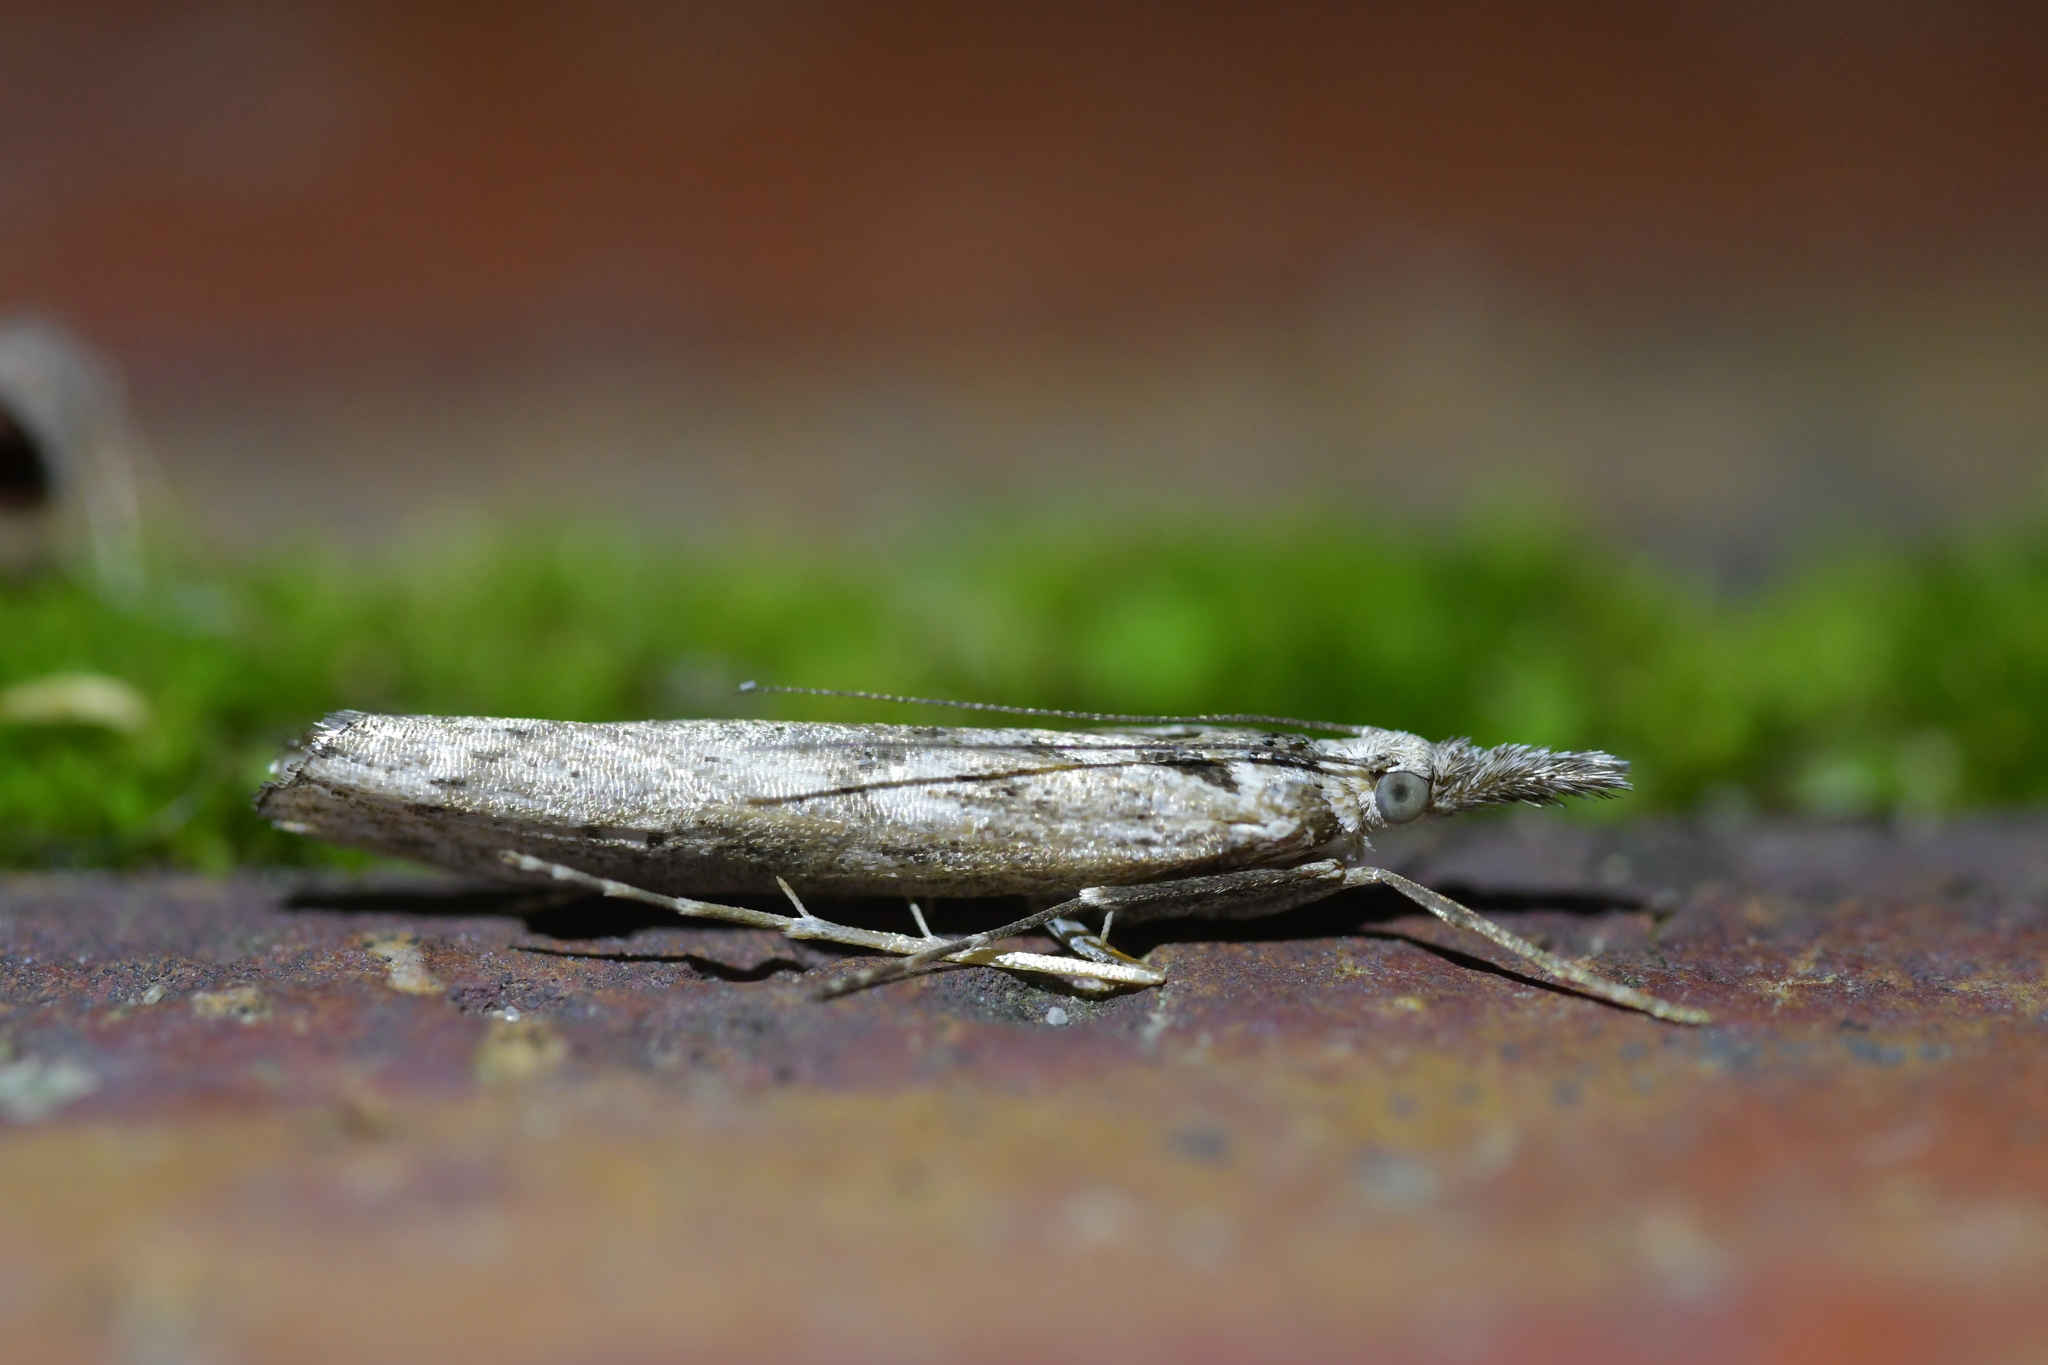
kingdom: Animalia
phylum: Arthropoda
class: Insecta
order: Lepidoptera
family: Crambidae
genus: Orocrambus
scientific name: Orocrambus cyclopicus
